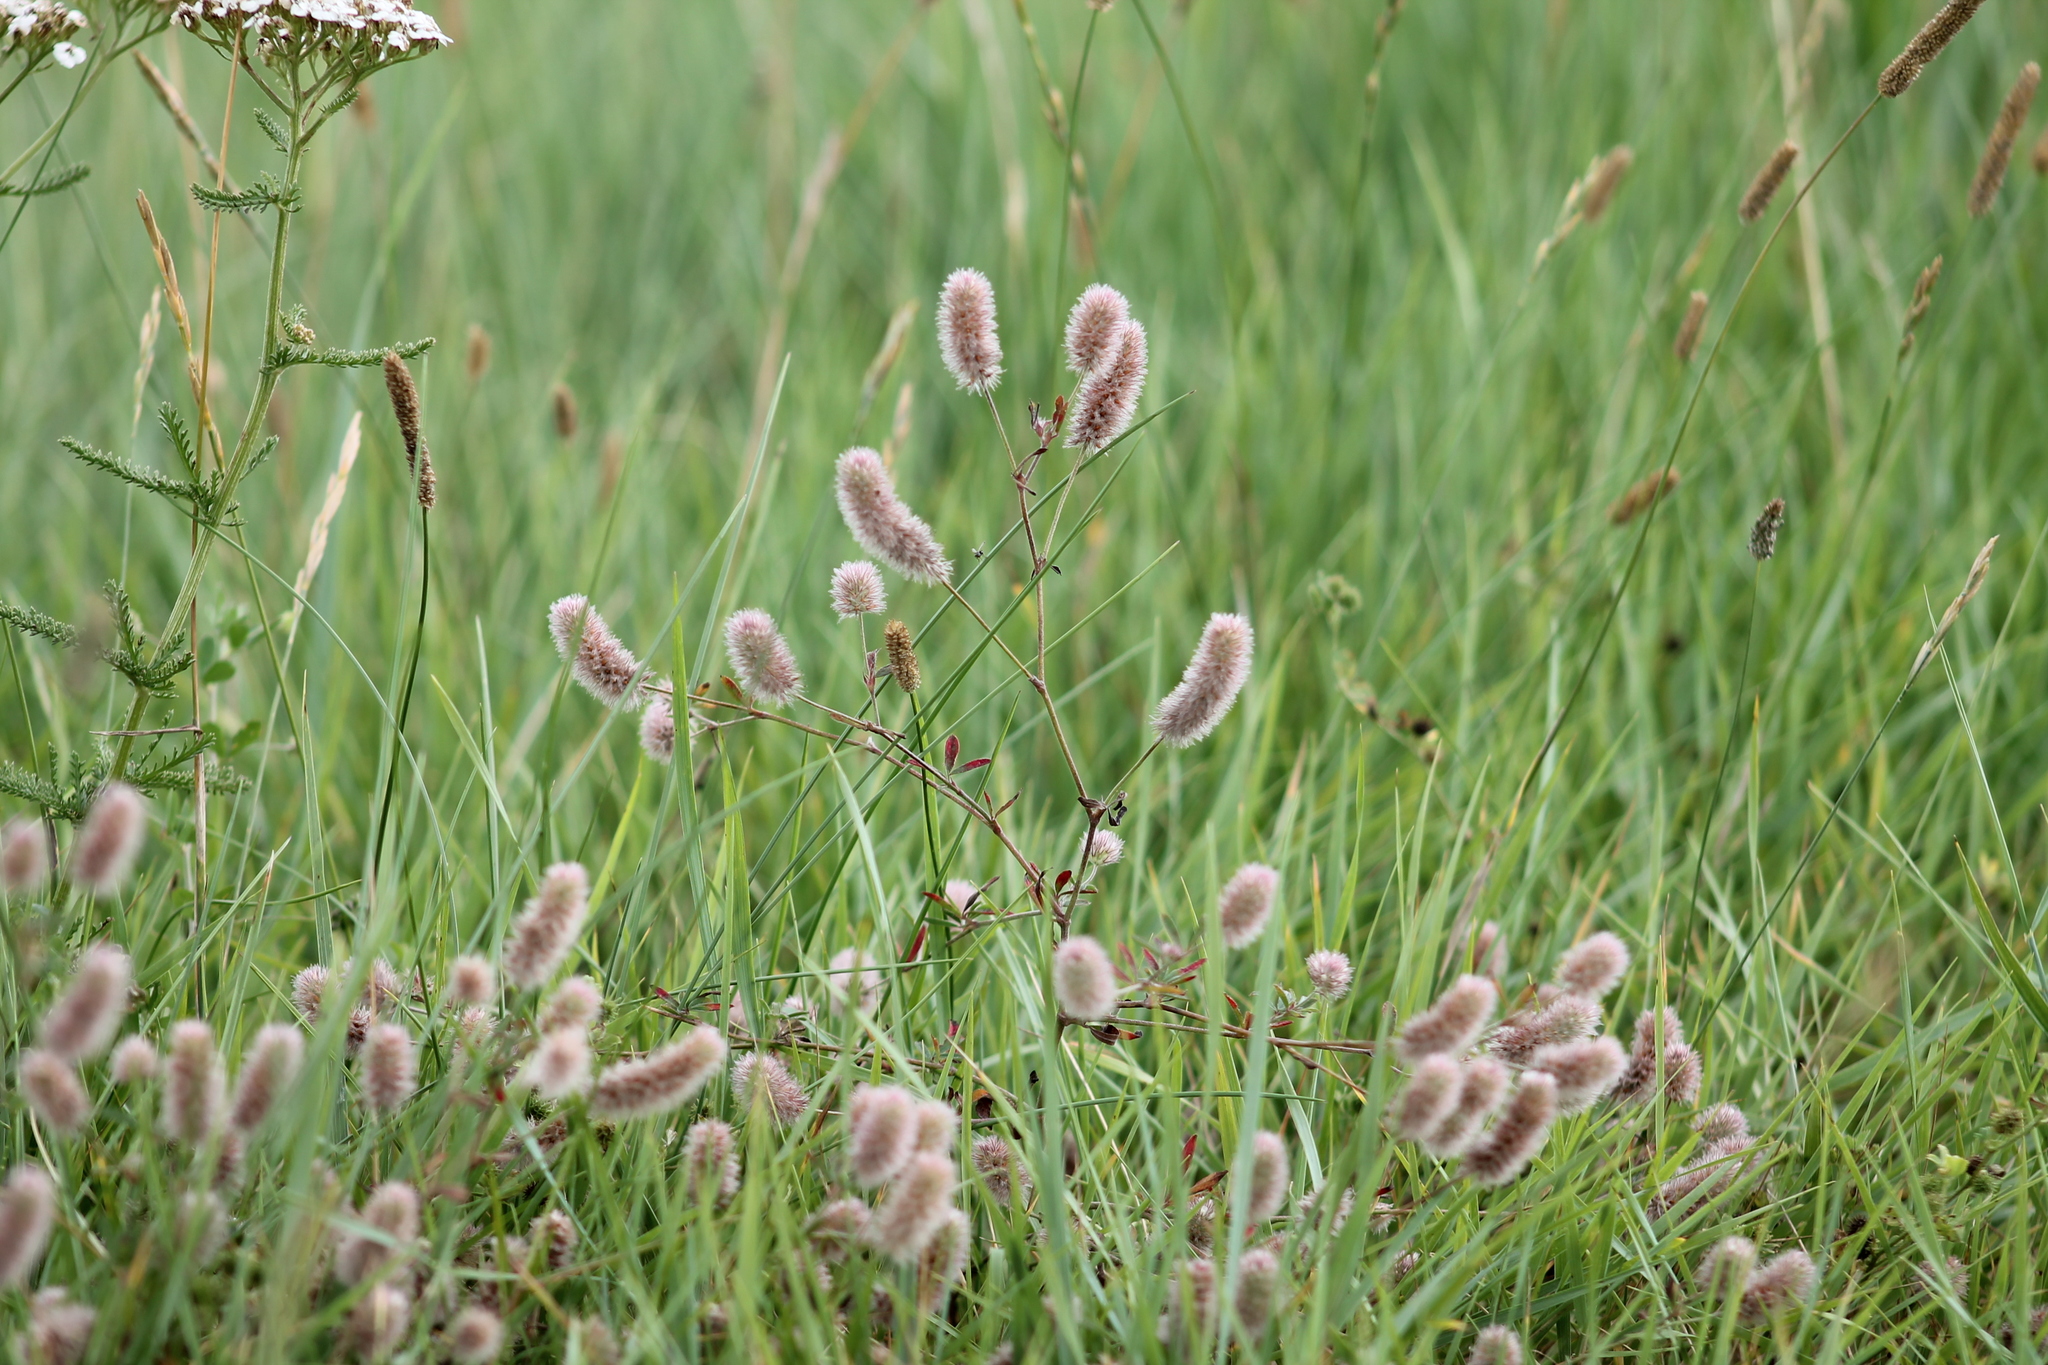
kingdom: Plantae
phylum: Tracheophyta
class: Magnoliopsida
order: Fabales
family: Fabaceae
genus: Trifolium
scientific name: Trifolium arvense
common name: Hare's-foot clover
